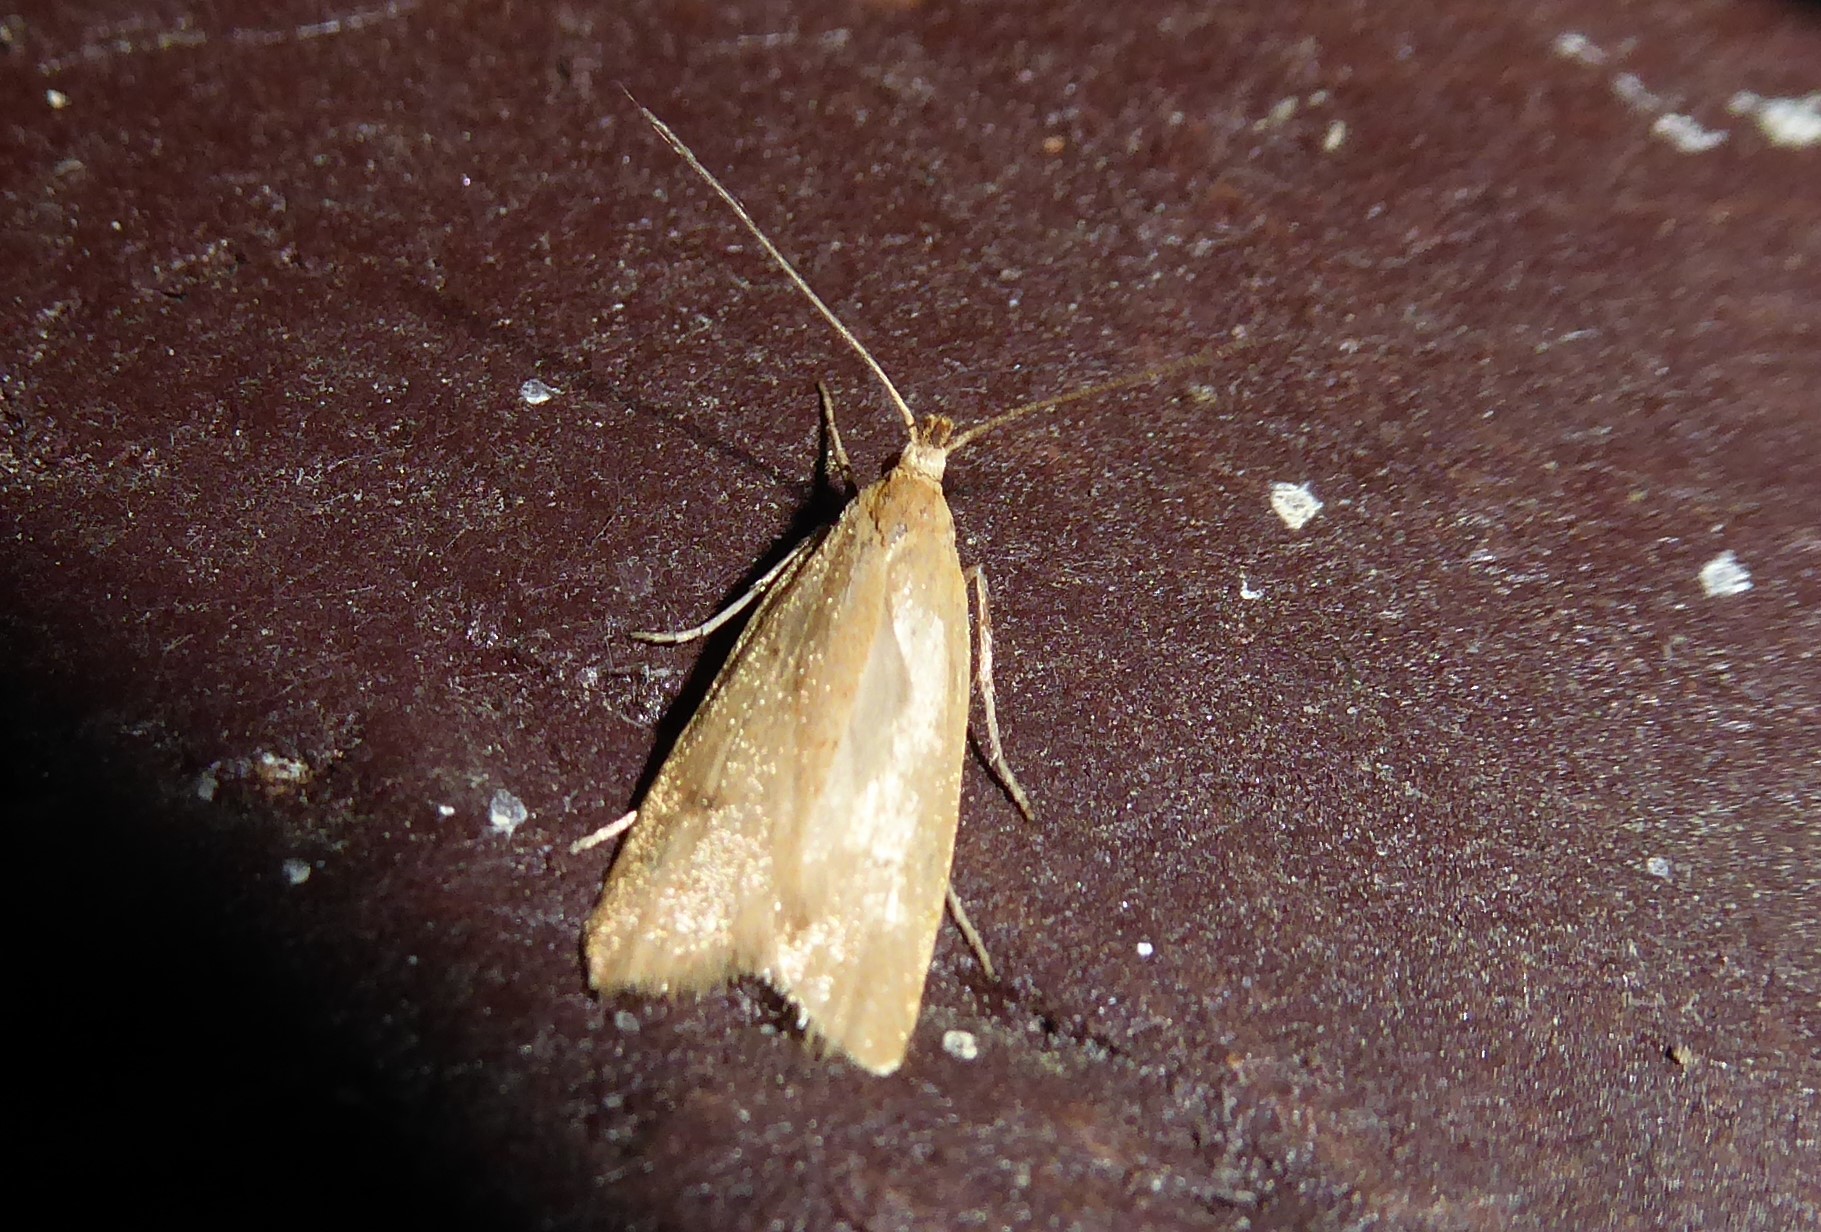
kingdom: Animalia
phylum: Arthropoda
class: Insecta
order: Lepidoptera
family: Oecophoridae
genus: Gymnobathra
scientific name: Gymnobathra sarcoxantha
